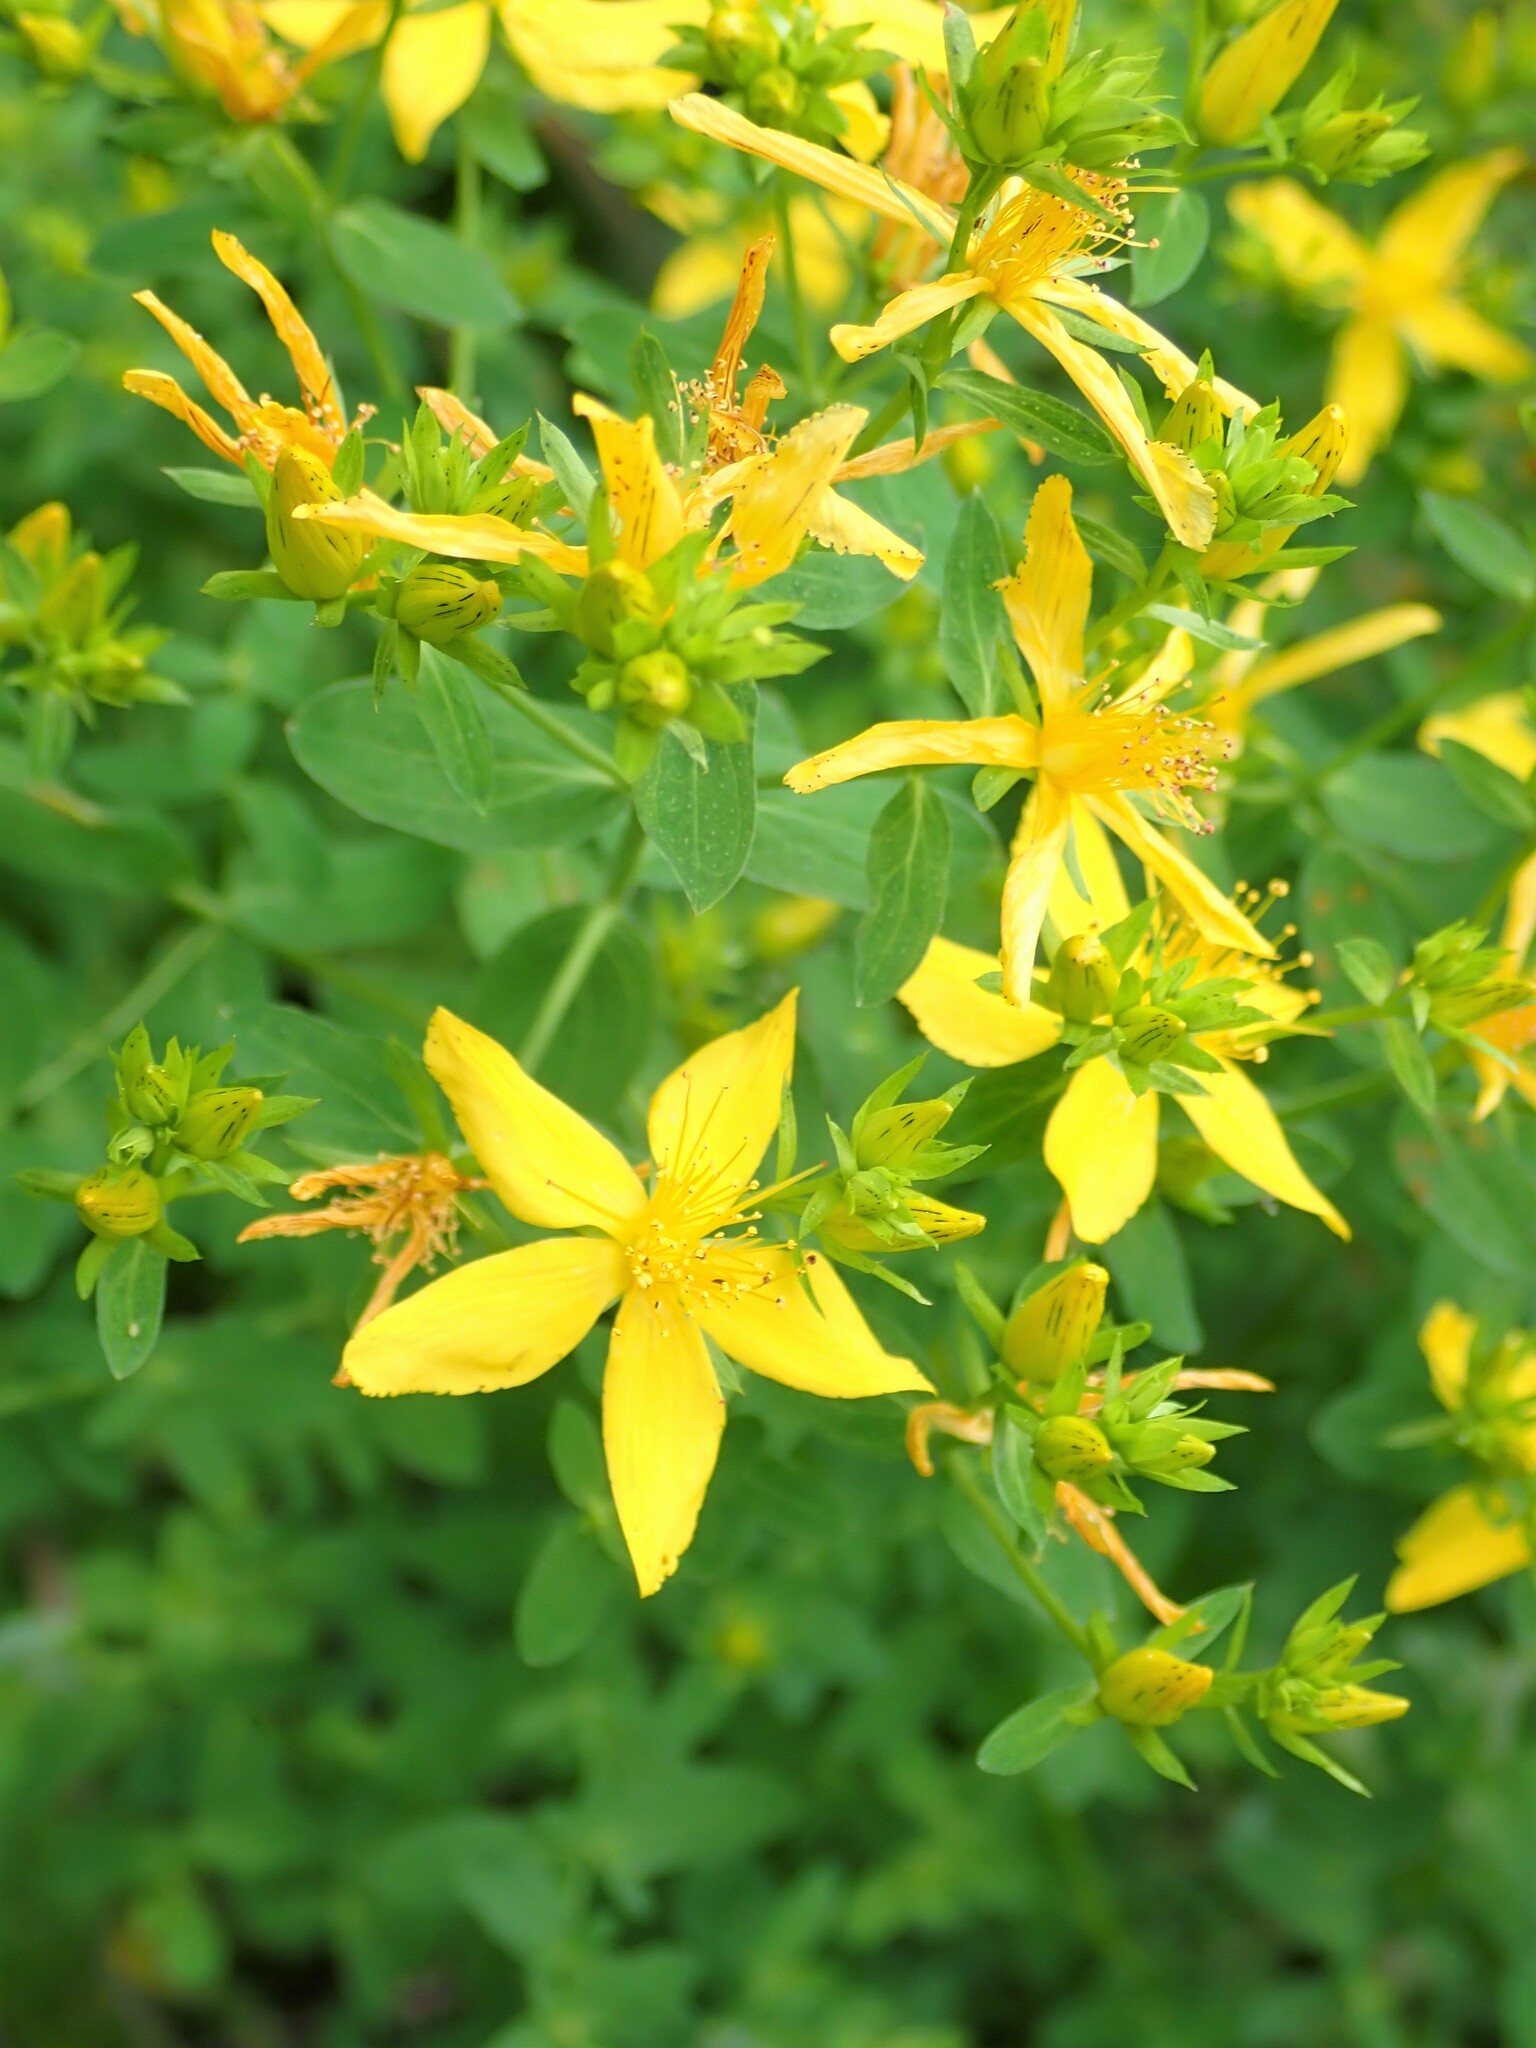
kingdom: Plantae
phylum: Tracheophyta
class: Magnoliopsida
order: Malpighiales
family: Hypericaceae
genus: Hypericum
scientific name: Hypericum perforatum
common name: Common st. johnswort
